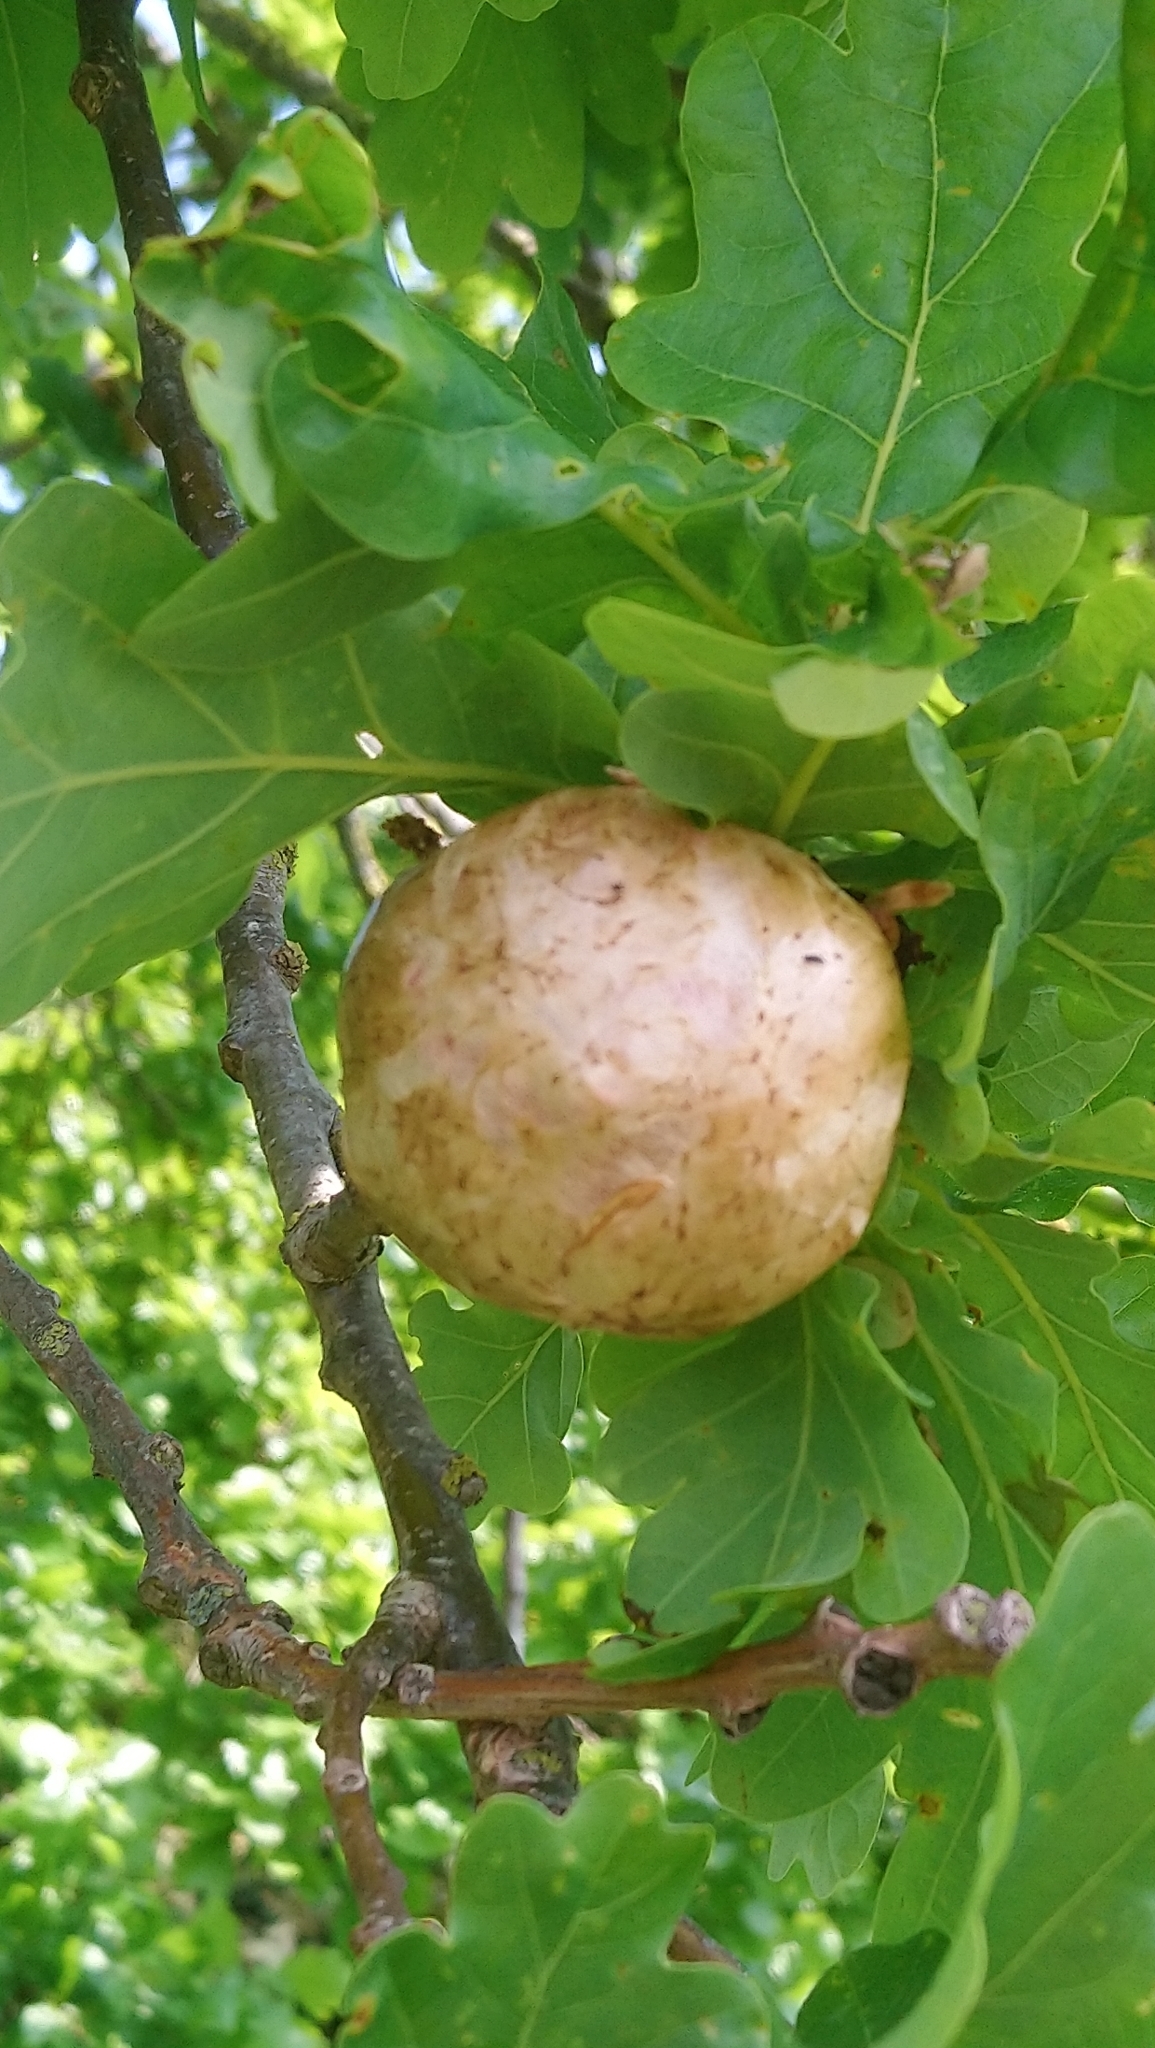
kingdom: Animalia
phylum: Arthropoda
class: Insecta
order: Hymenoptera
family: Cynipidae
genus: Biorhiza
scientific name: Biorhiza pallida
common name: Oak apple
